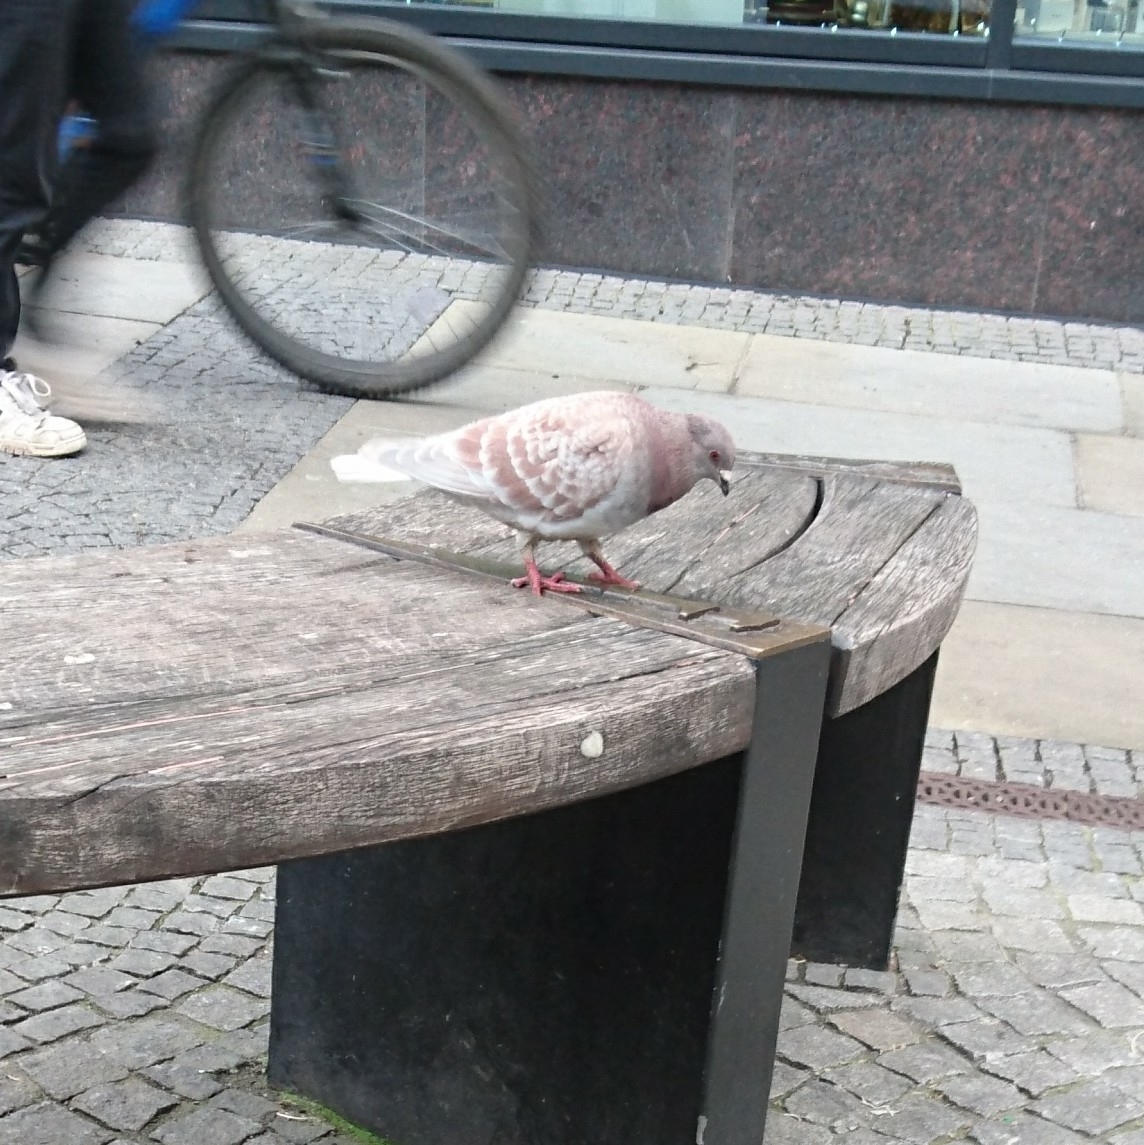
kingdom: Animalia
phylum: Chordata
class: Aves
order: Columbiformes
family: Columbidae
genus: Columba
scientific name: Columba livia
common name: Rock pigeon
